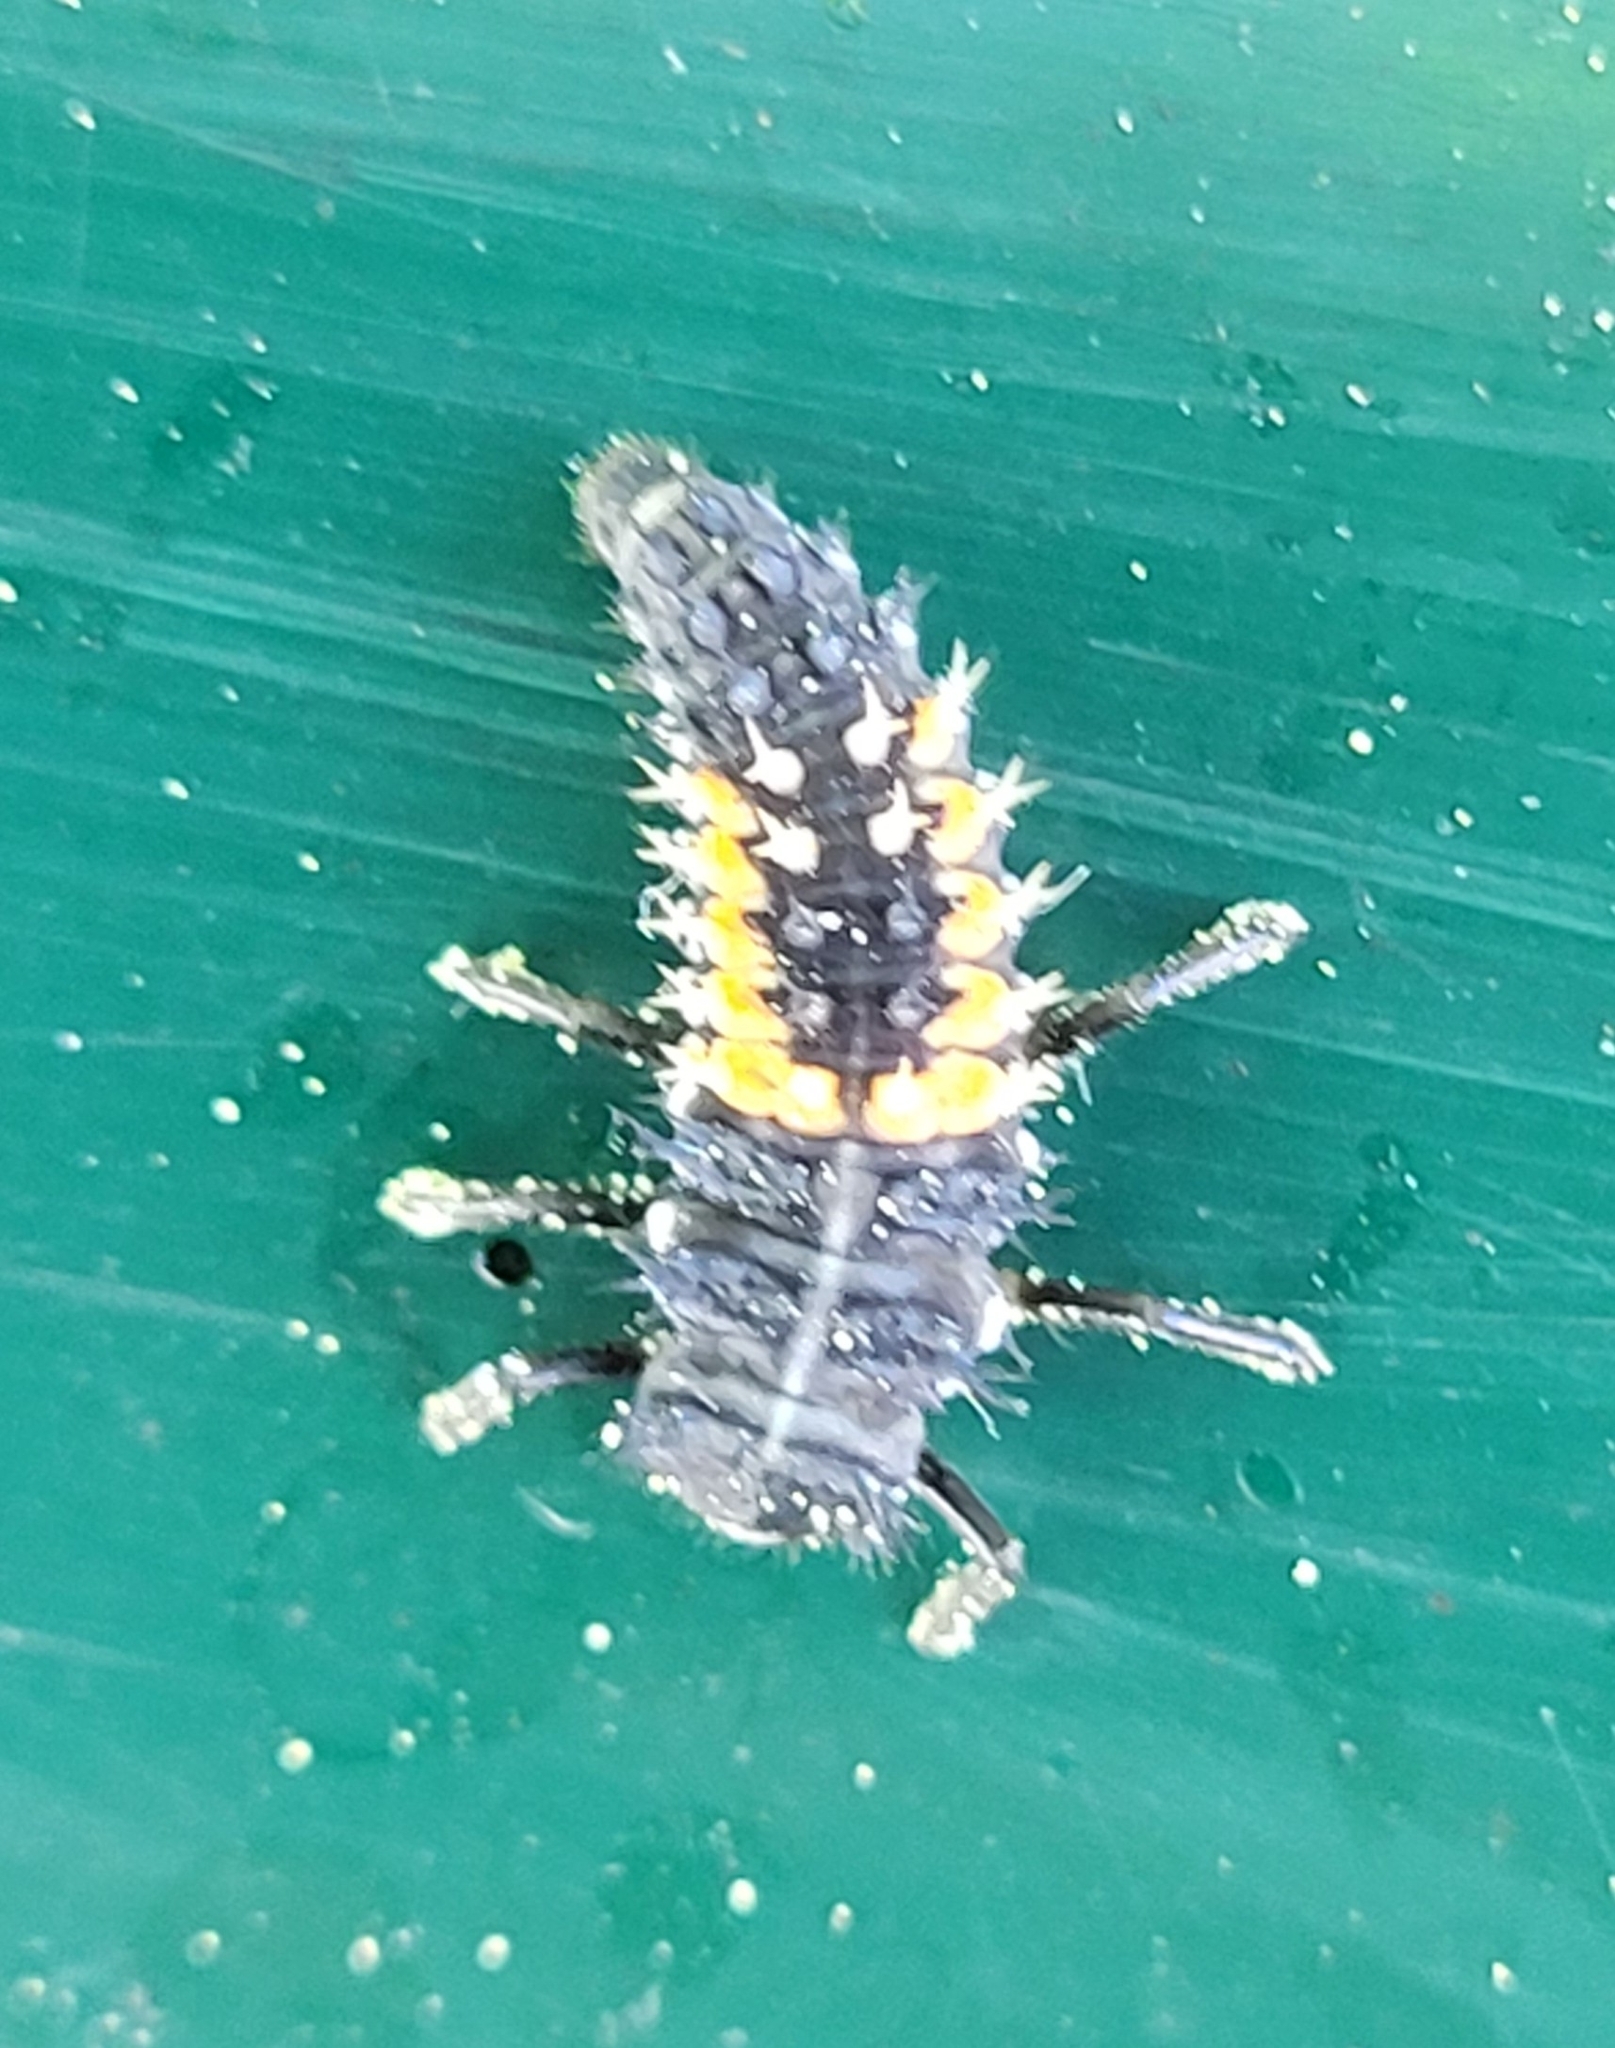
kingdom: Animalia
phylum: Arthropoda
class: Insecta
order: Coleoptera
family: Coccinellidae
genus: Harmonia
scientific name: Harmonia axyridis
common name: Harlequin ladybird
